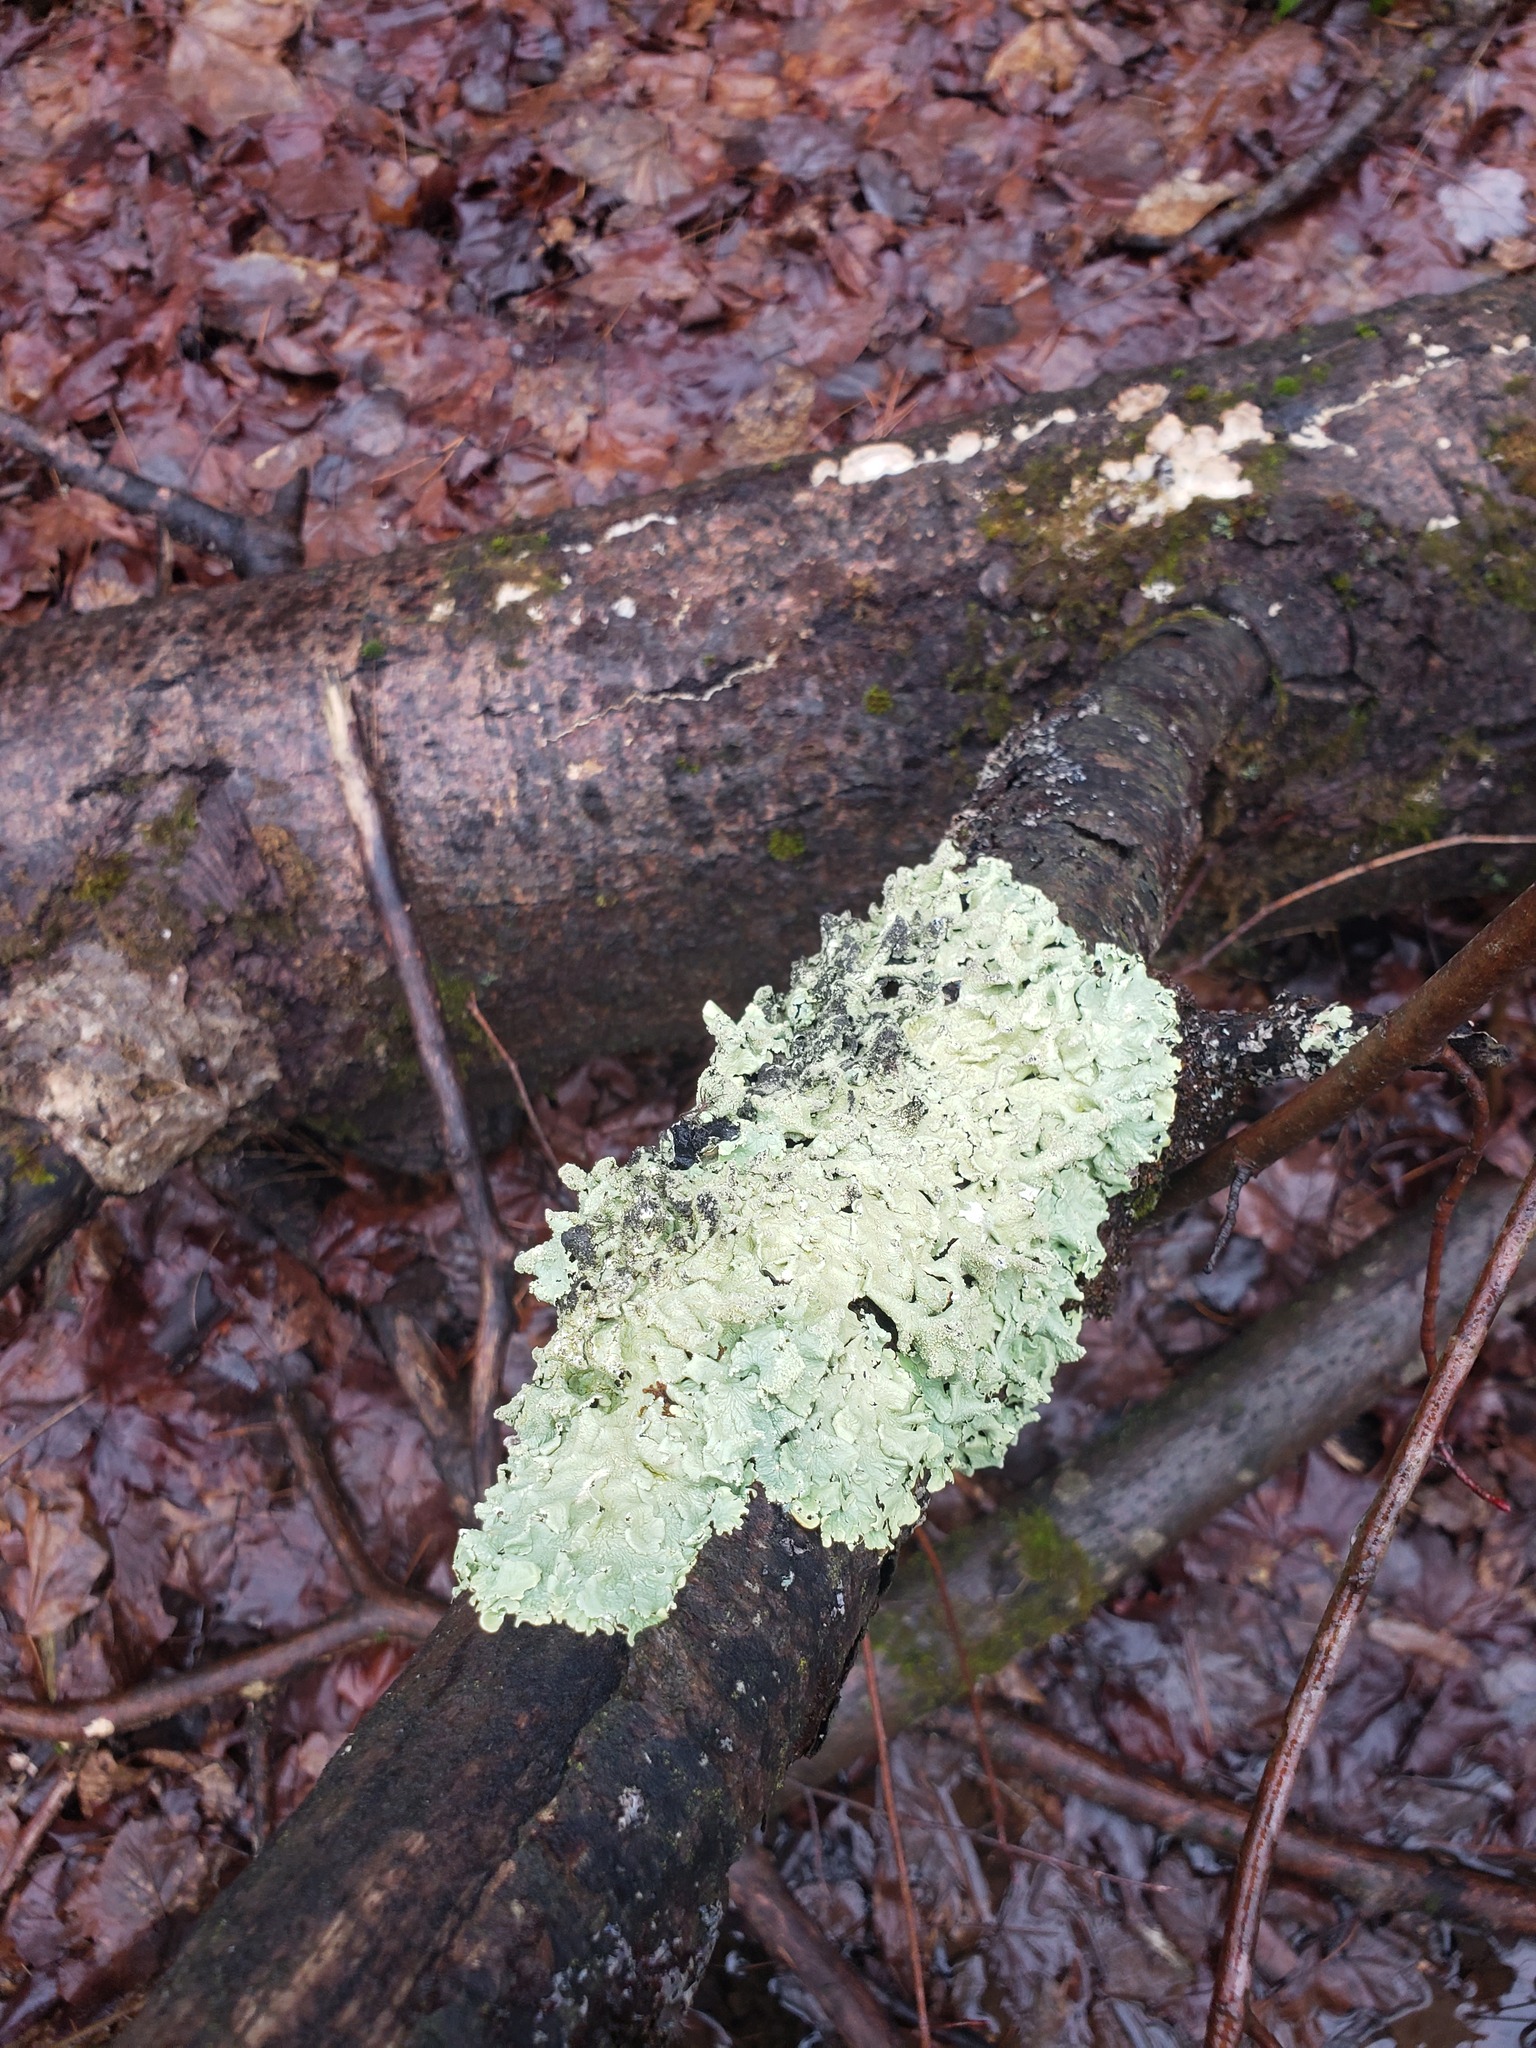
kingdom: Fungi
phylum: Ascomycota
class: Lecanoromycetes
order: Lecanorales
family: Parmeliaceae
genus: Flavoparmelia
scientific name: Flavoparmelia caperata
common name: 40-mile per hour lichen
